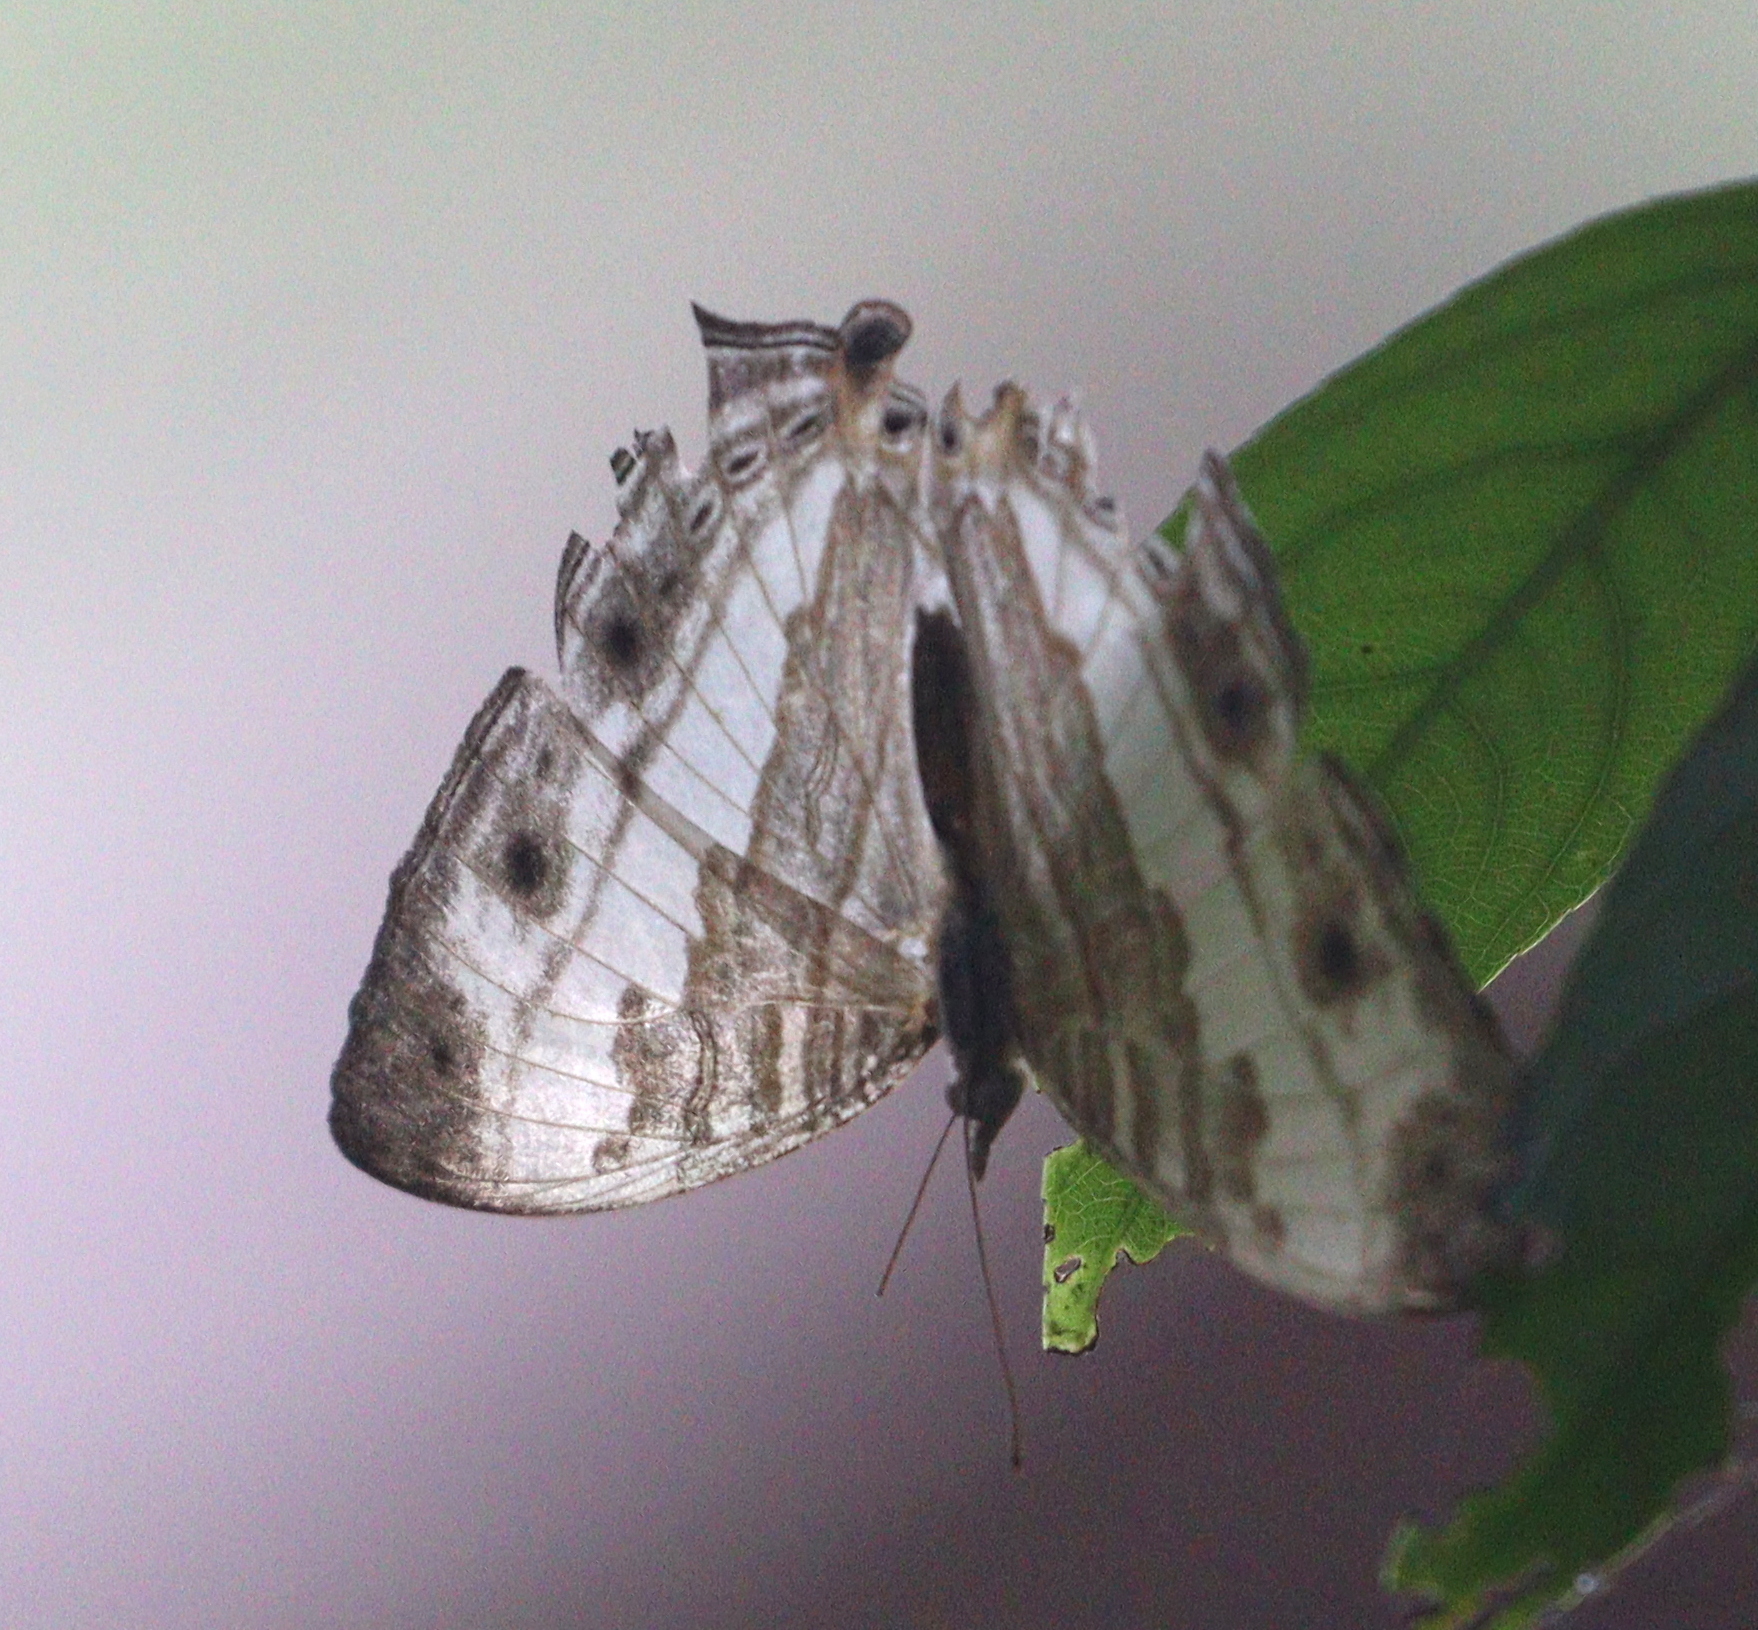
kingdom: Animalia
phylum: Arthropoda
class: Insecta
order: Lepidoptera
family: Nymphalidae
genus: Cyrestis
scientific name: Cyrestis cocles
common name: Marbled map
